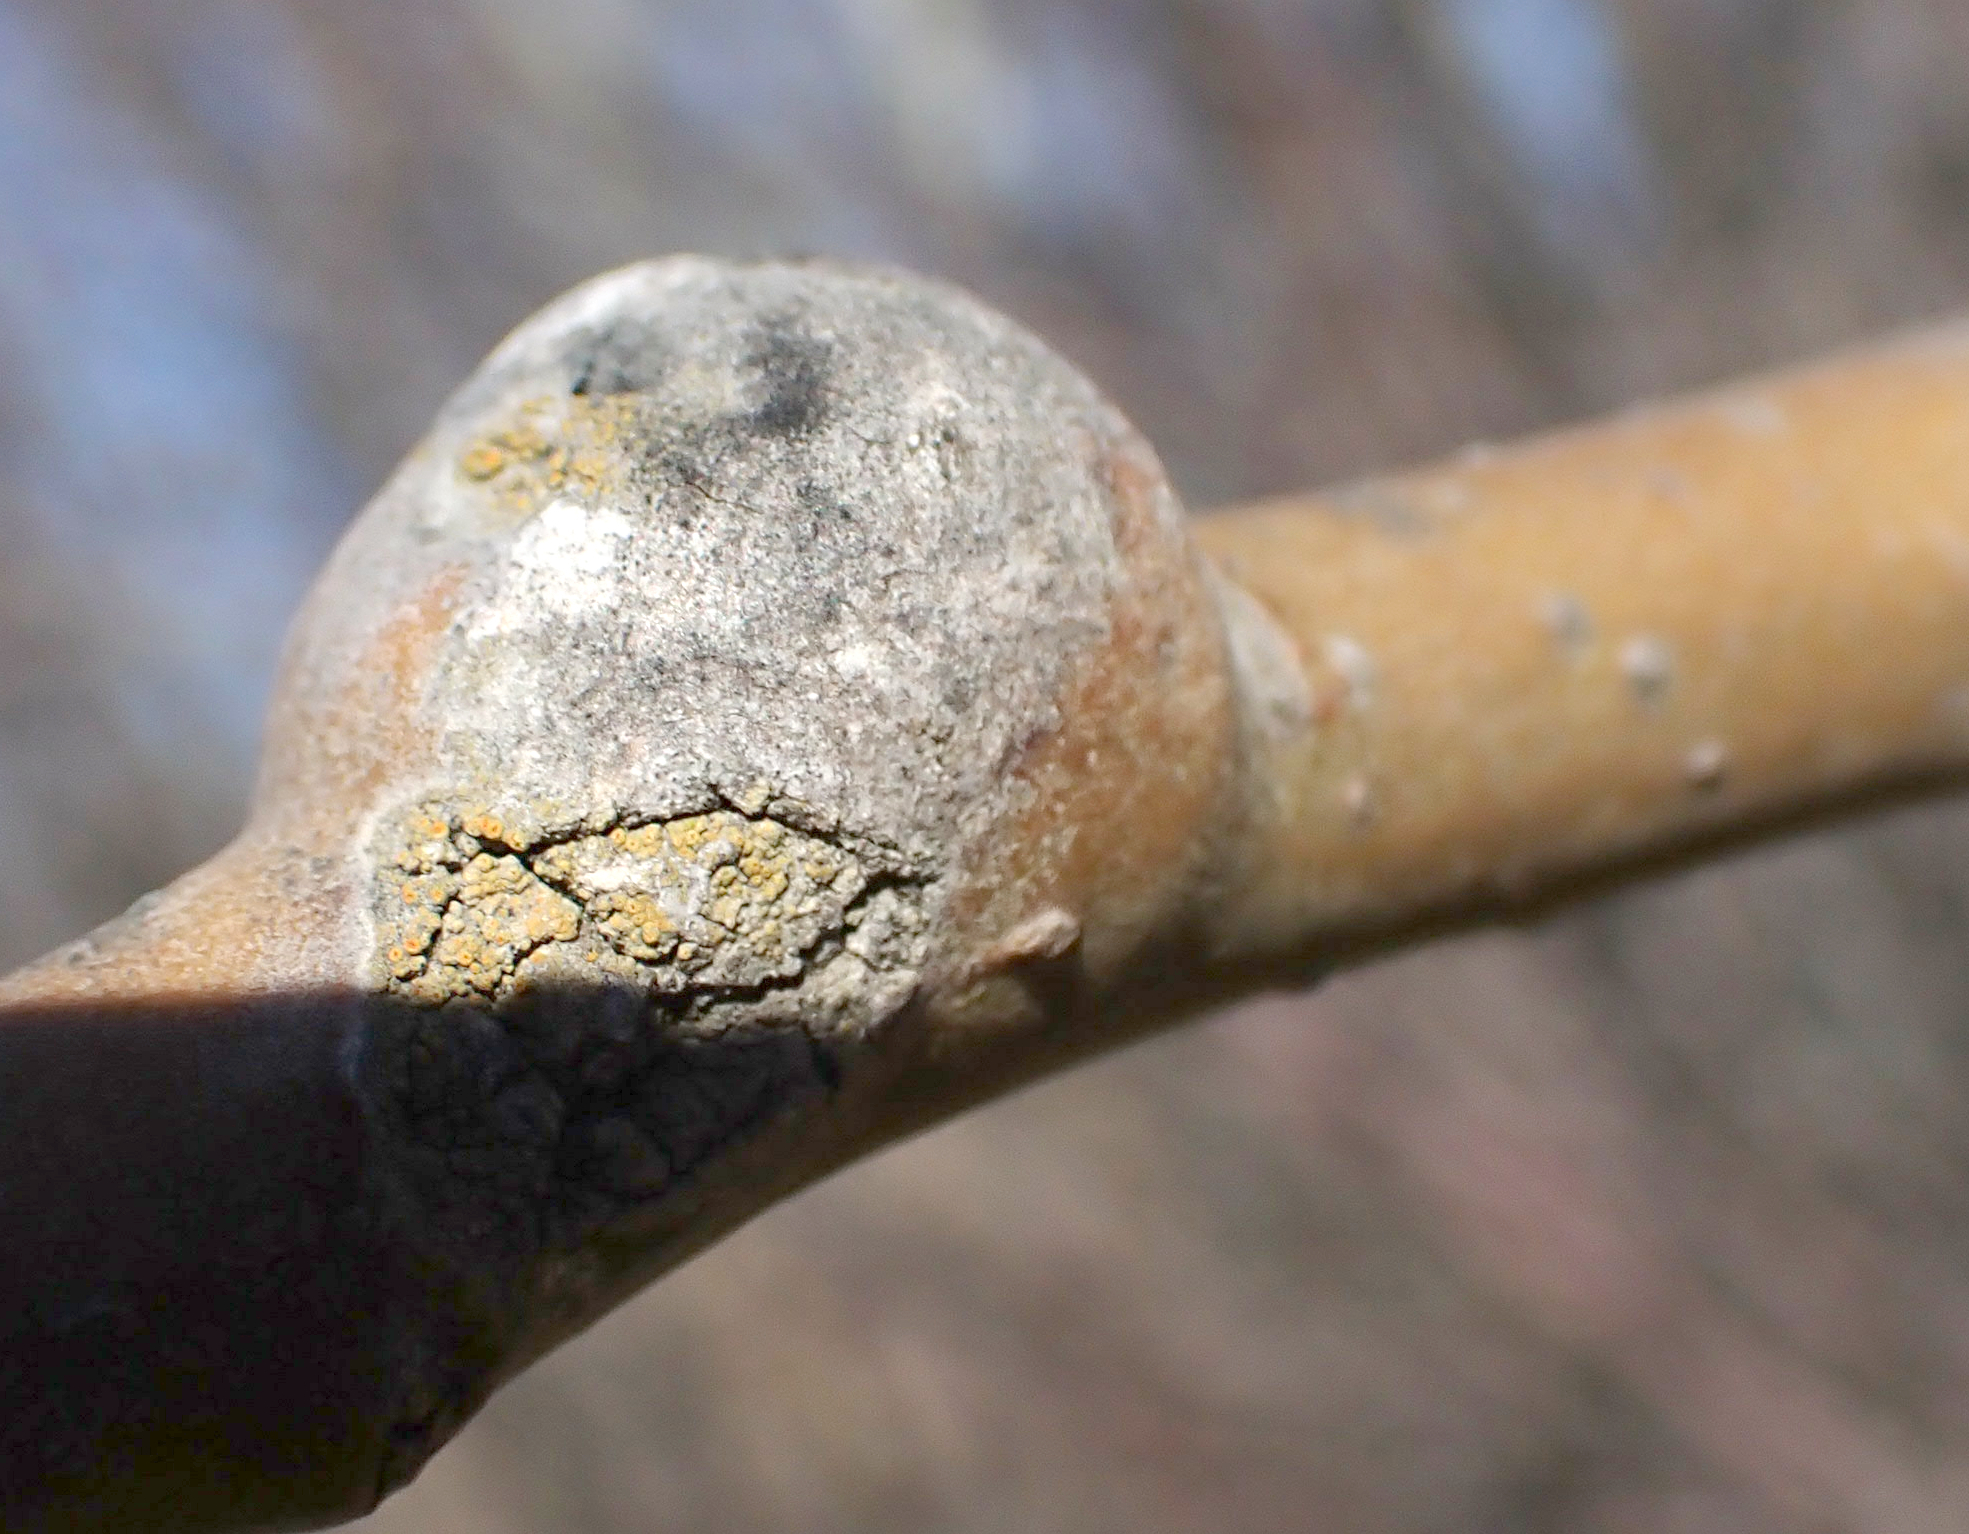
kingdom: Animalia
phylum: Arthropoda
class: Insecta
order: Diptera
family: Agromyzidae
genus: Euhexomyza
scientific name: Euhexomyza schineri
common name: Poplar twiggall fly
